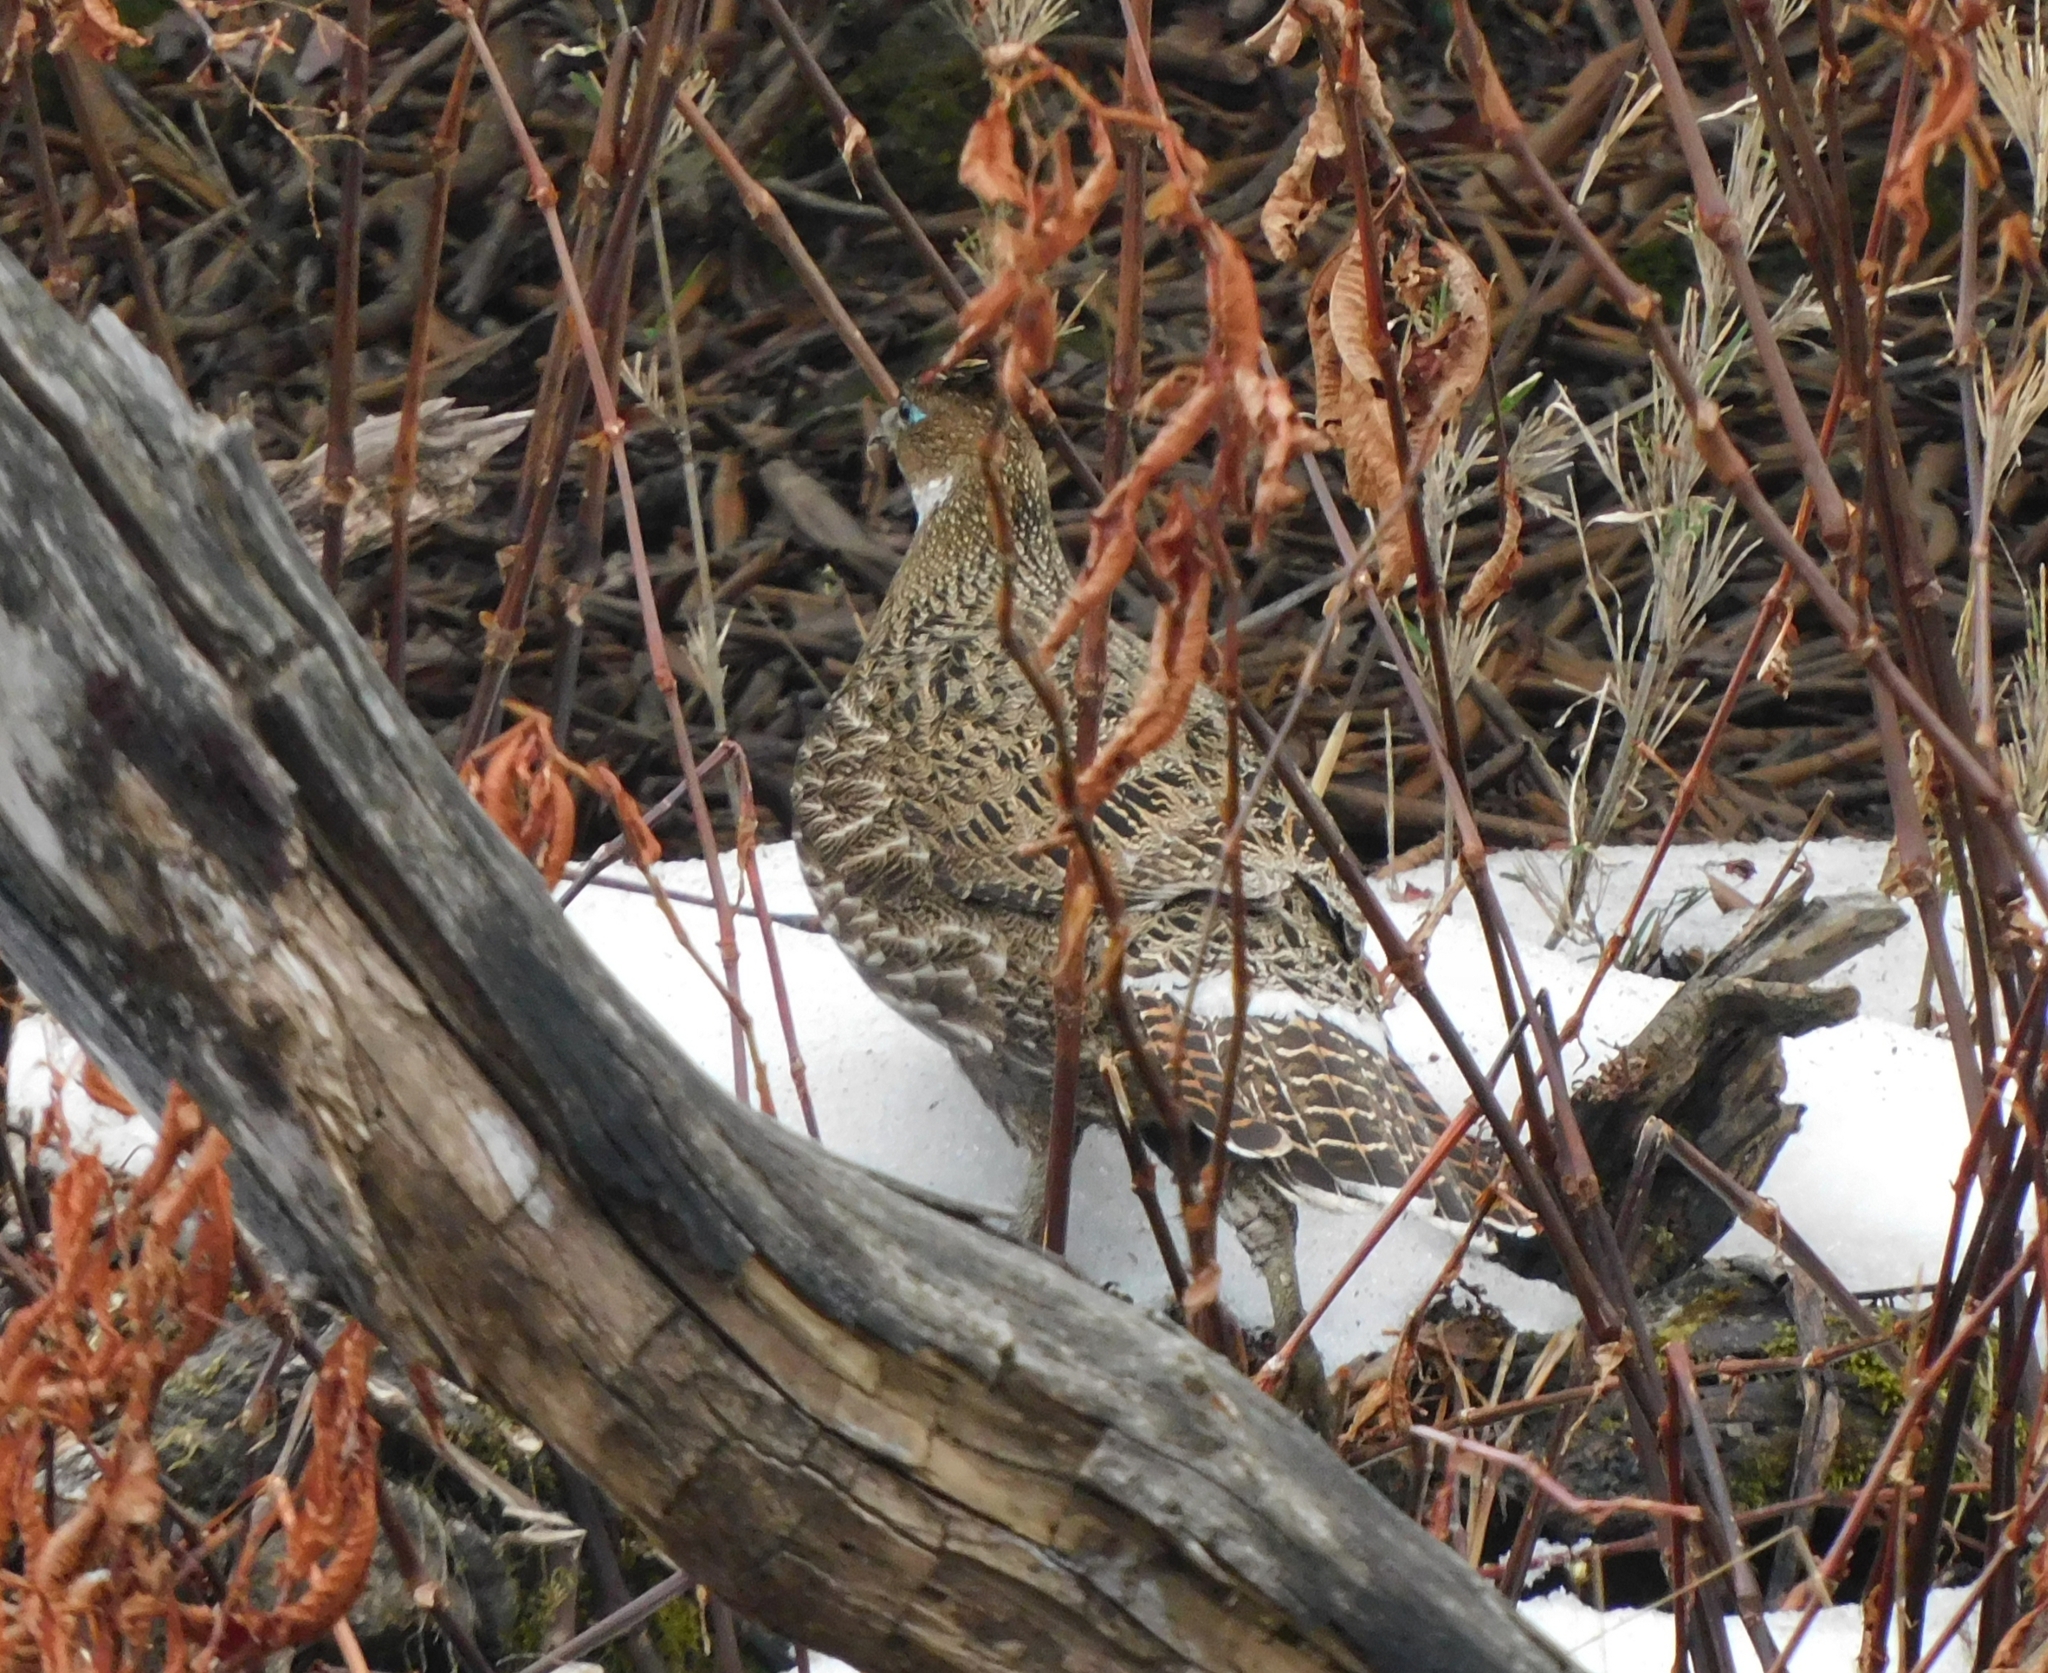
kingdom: Animalia
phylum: Chordata
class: Aves
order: Galliformes
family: Phasianidae
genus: Lophophorus
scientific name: Lophophorus impejanus
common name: Himalayan monal
